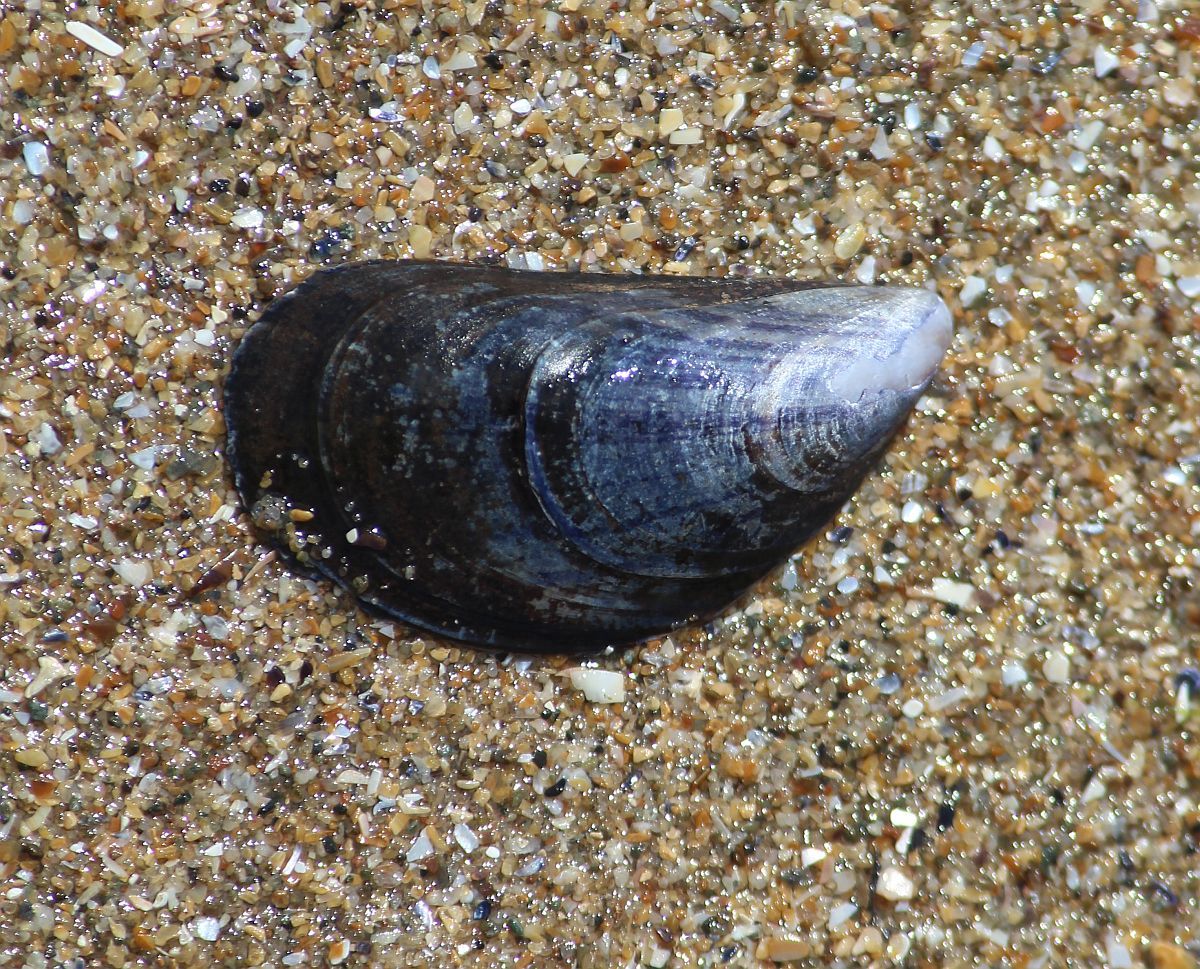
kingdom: Animalia
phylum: Mollusca
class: Bivalvia
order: Mytilida
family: Mytilidae
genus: Mytilus
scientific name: Mytilus edulis
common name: Blue mussel
